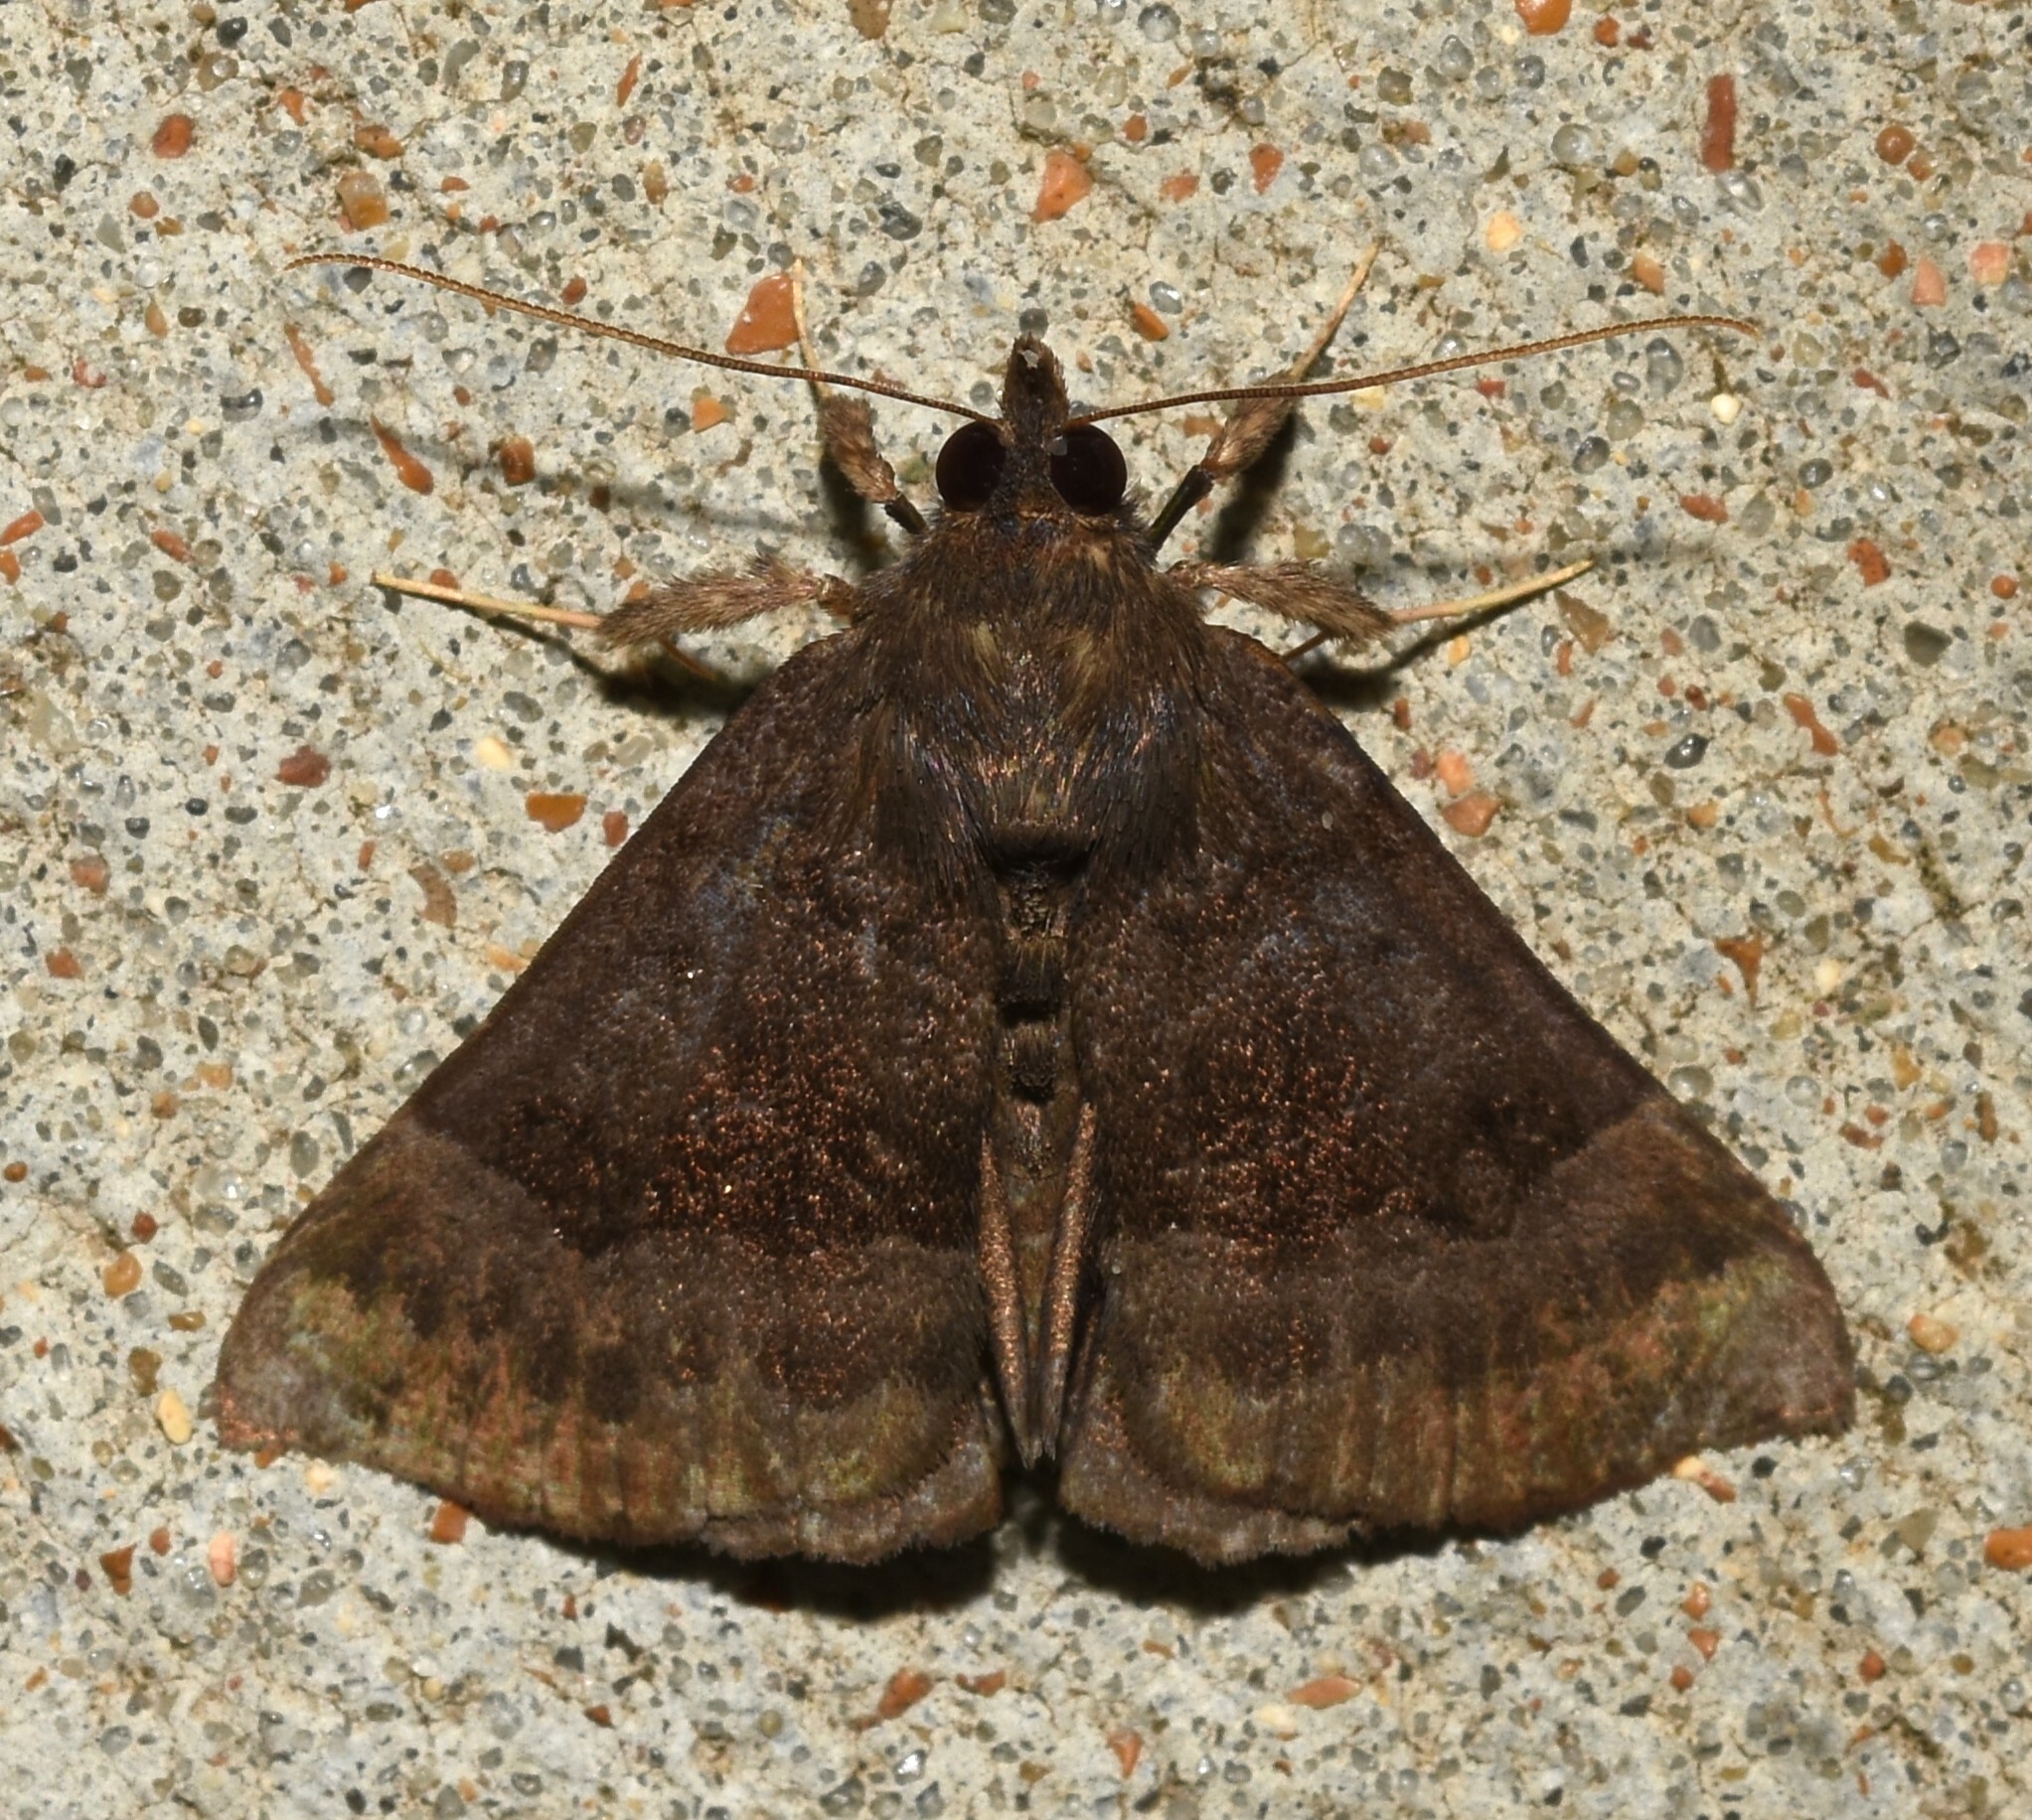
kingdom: Animalia
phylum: Arthropoda
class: Insecta
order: Lepidoptera
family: Erebidae
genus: Hypena
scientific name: Hypena madefactalis
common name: Gray-edged snout
